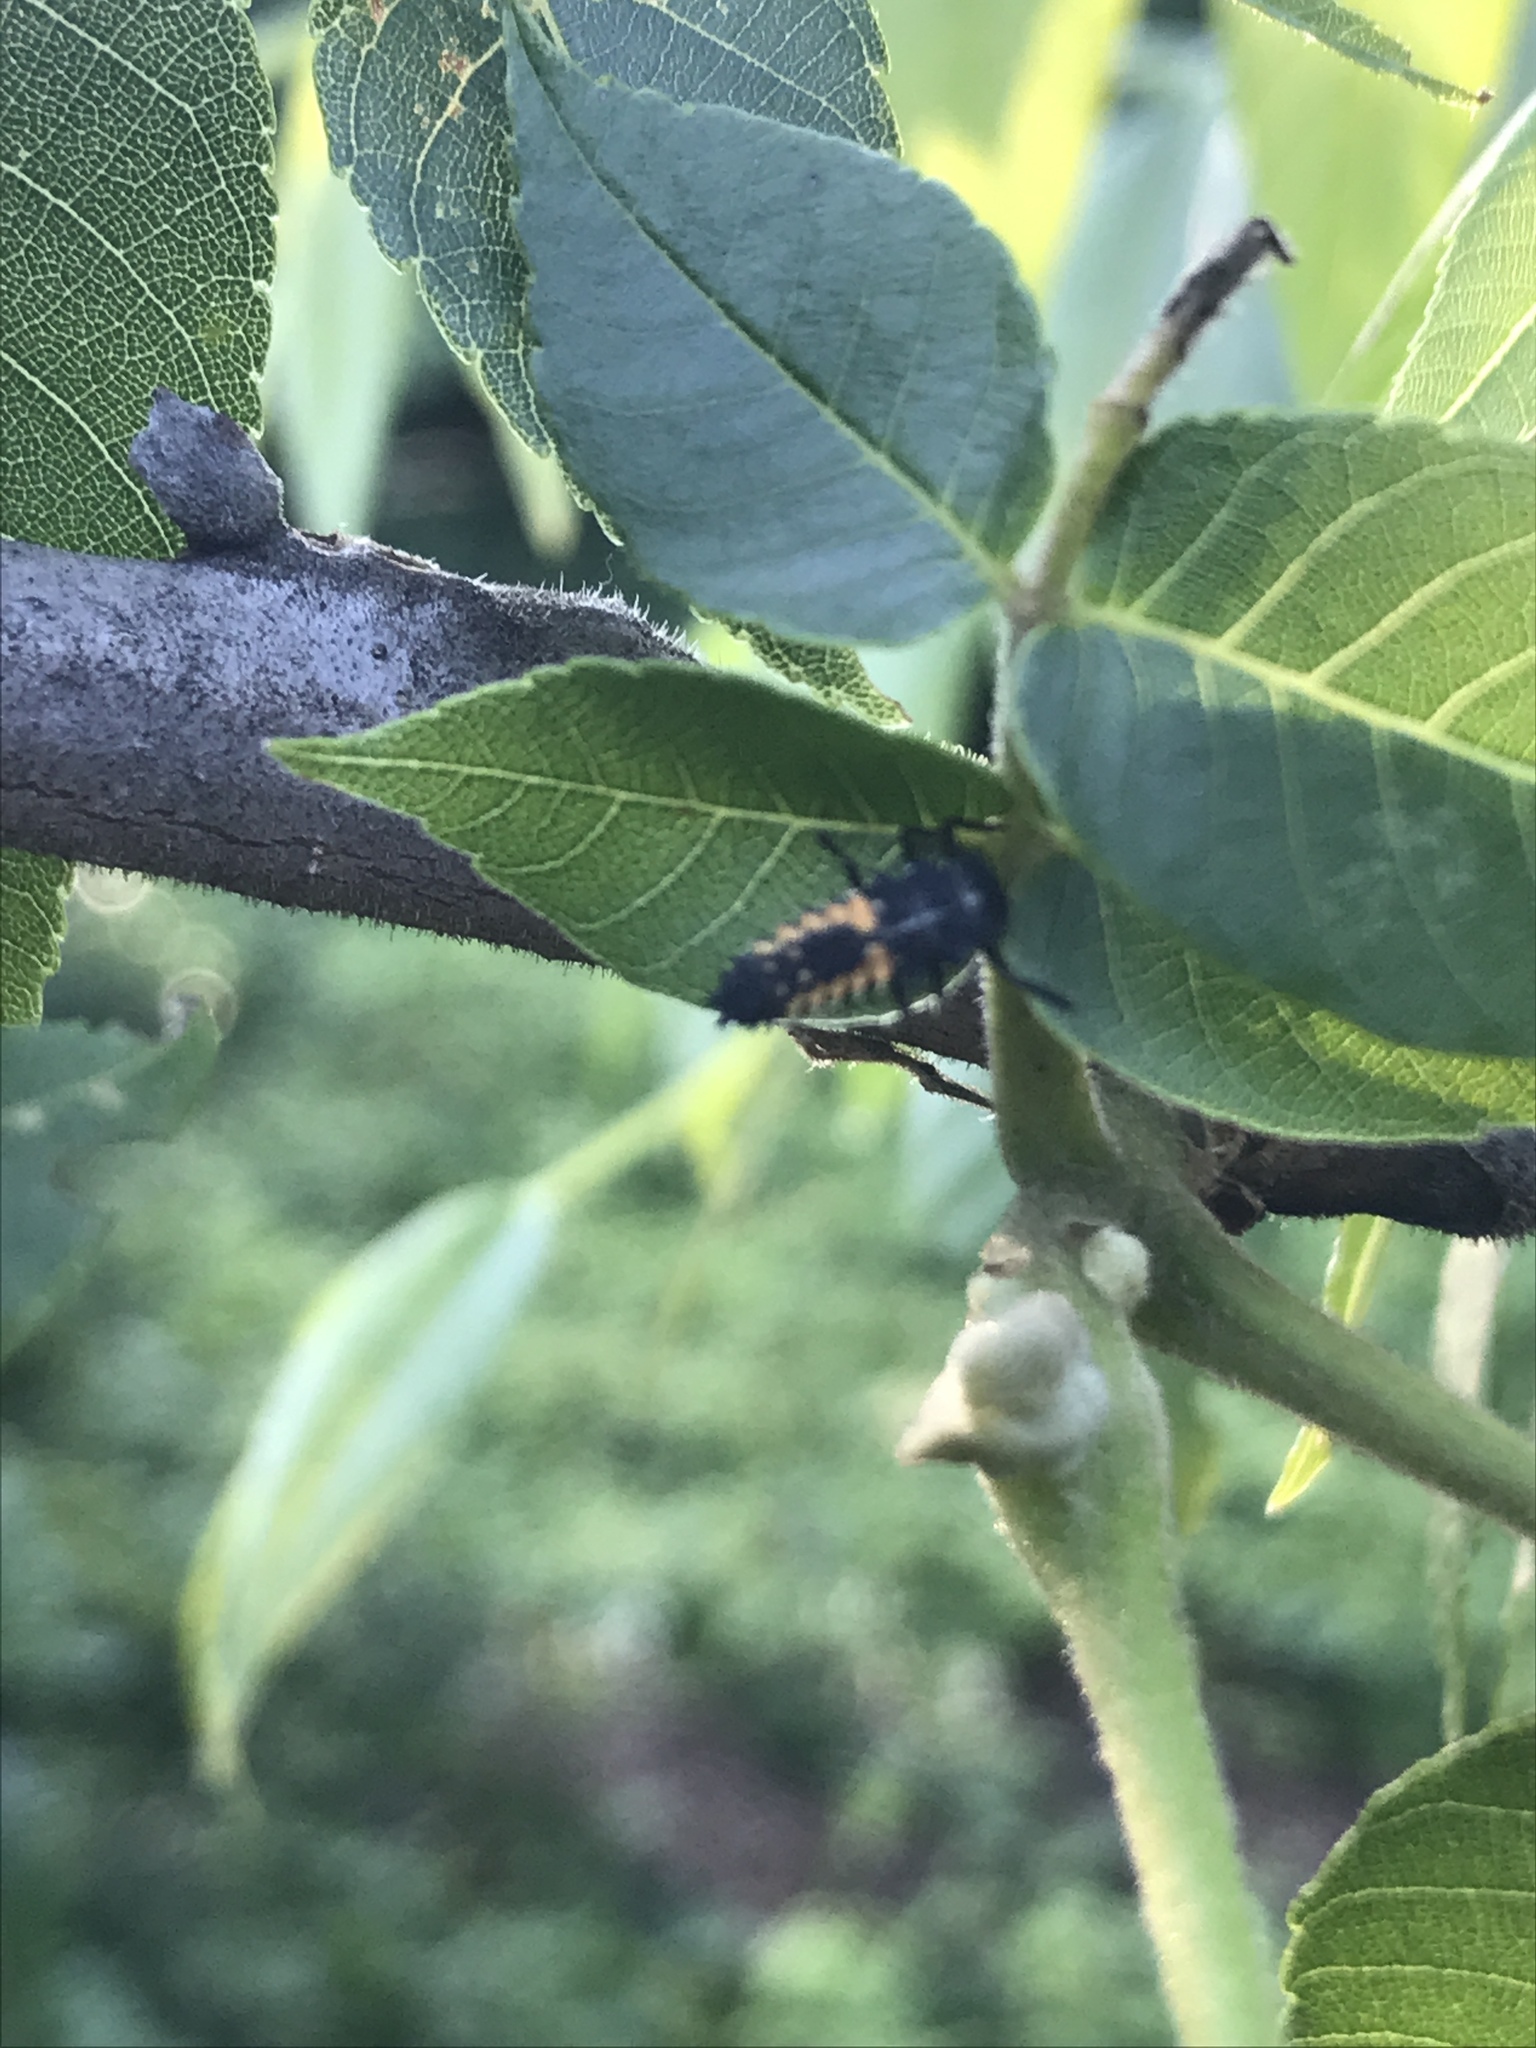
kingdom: Animalia
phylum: Arthropoda
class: Insecta
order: Coleoptera
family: Coccinellidae
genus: Harmonia
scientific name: Harmonia axyridis
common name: Harlequin ladybird
